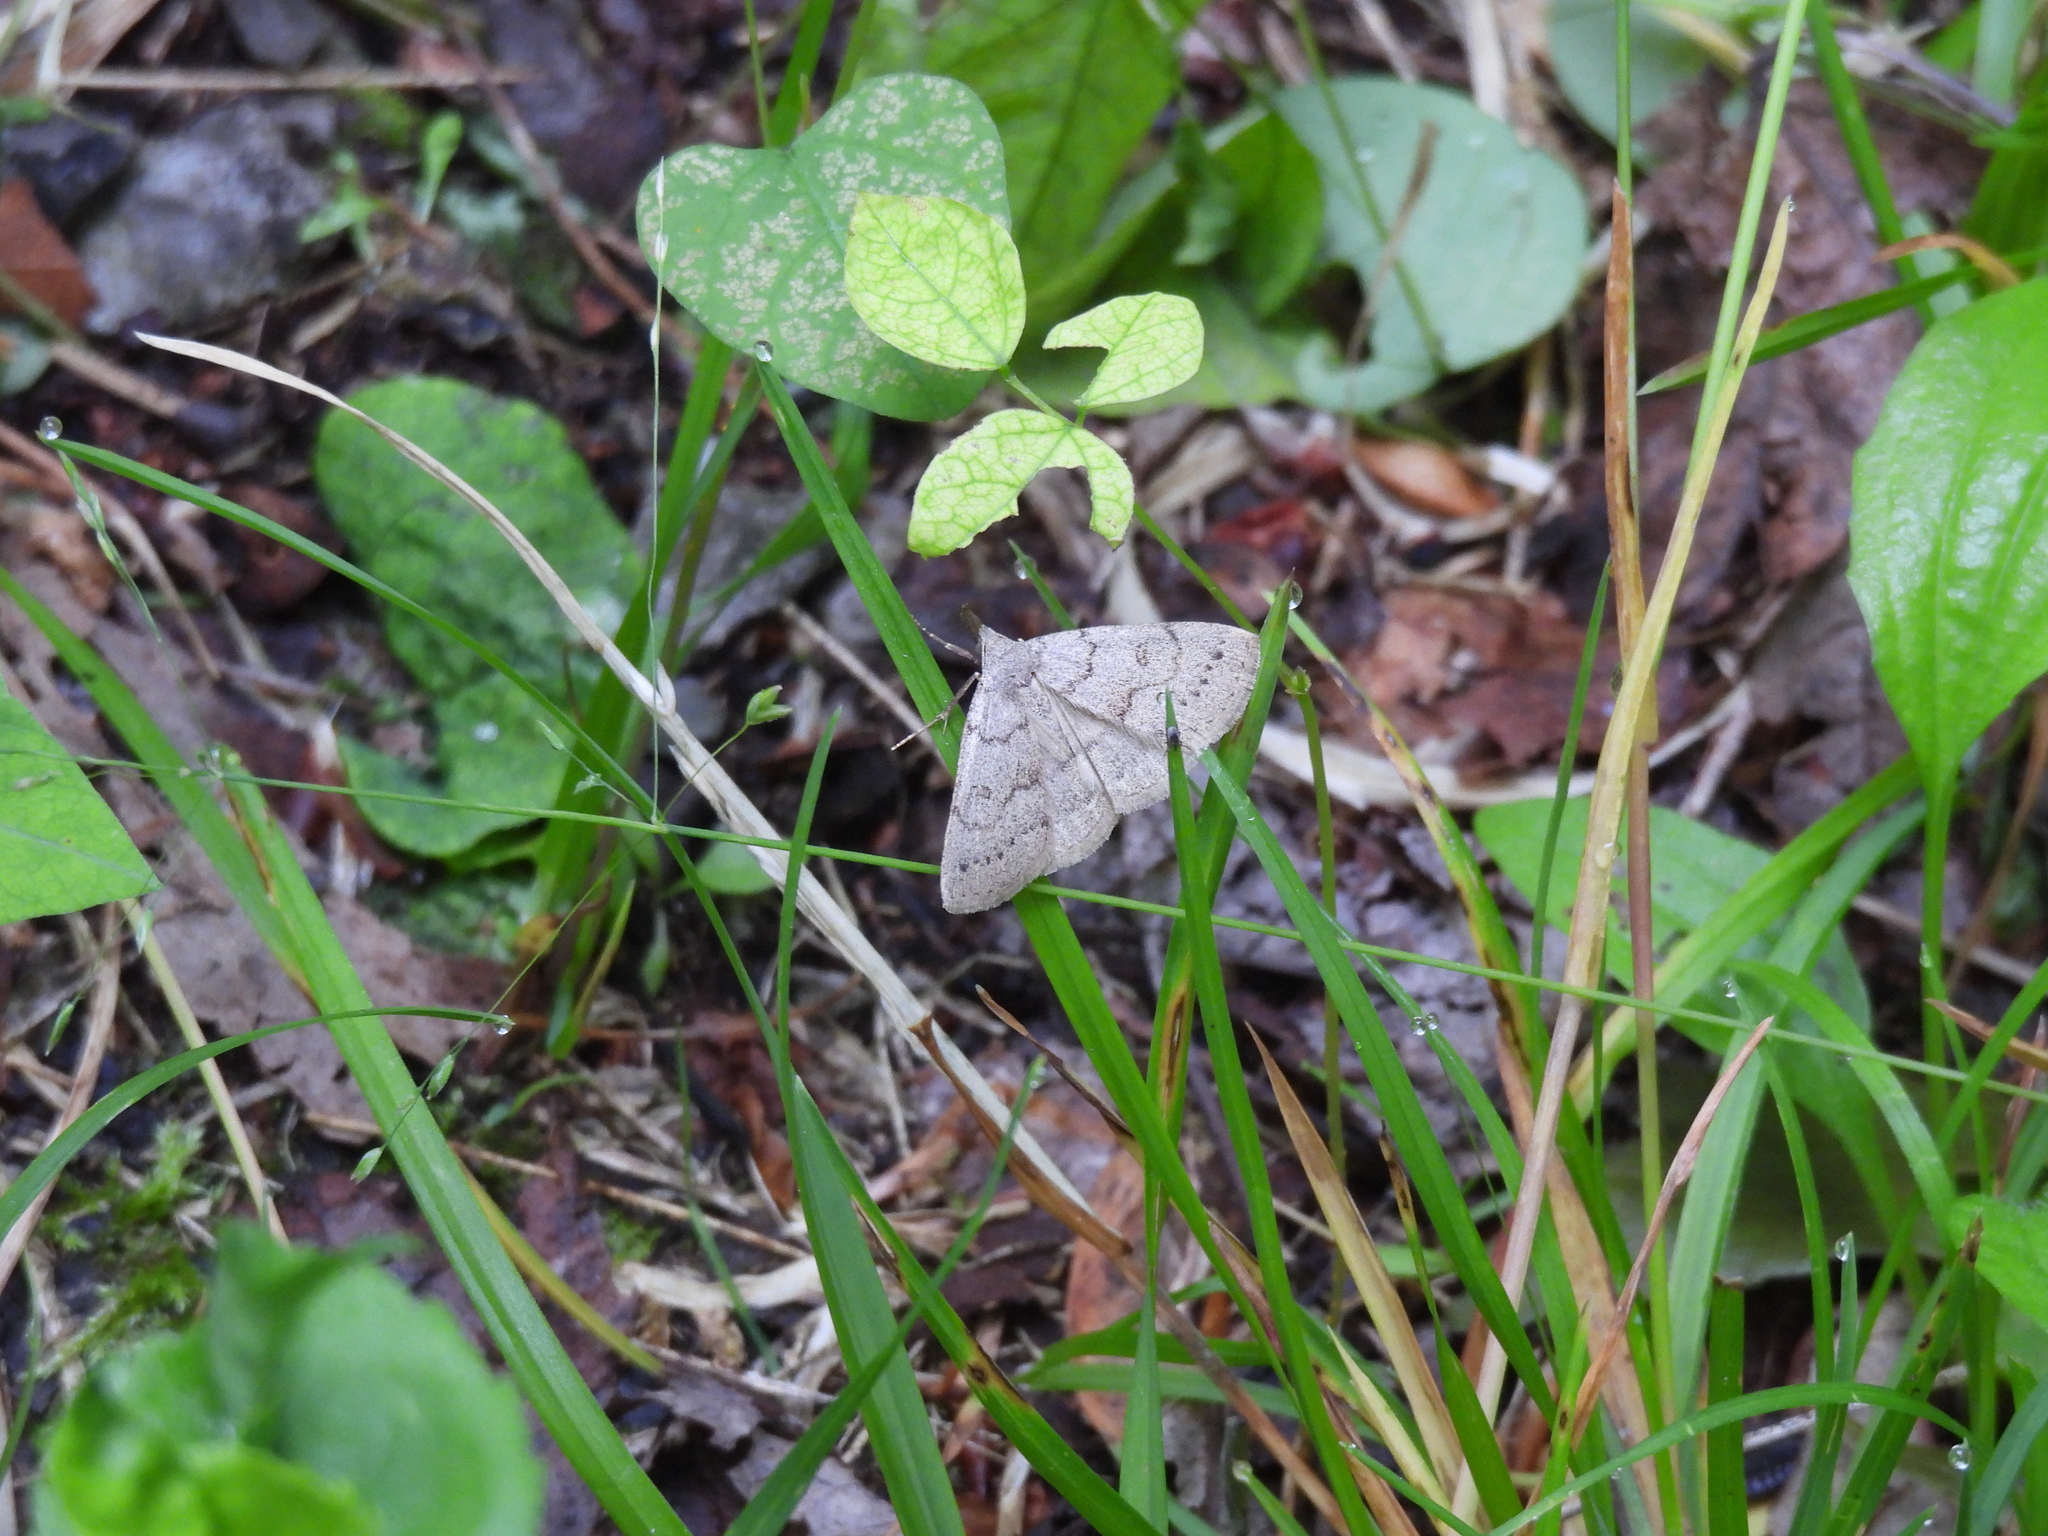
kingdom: Animalia
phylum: Arthropoda
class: Insecta
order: Lepidoptera
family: Erebidae
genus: Macrochilo
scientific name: Macrochilo morbidalis
